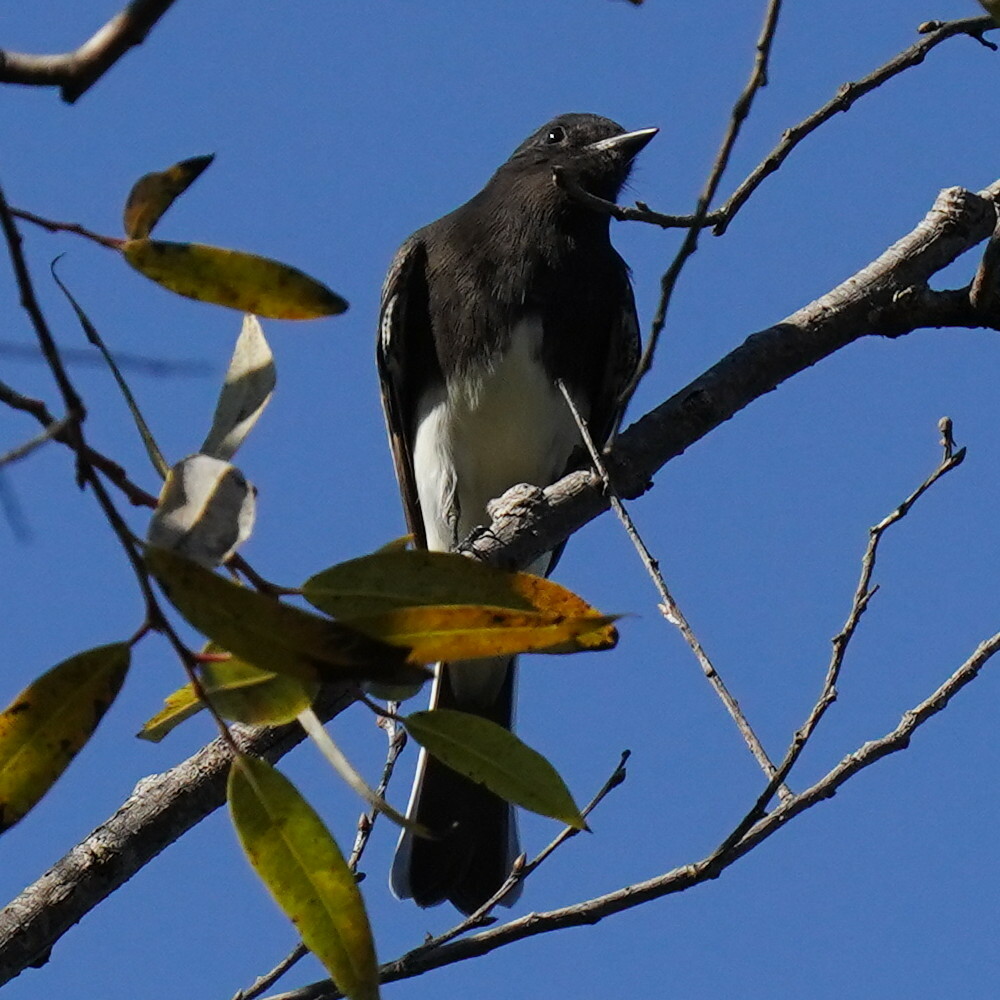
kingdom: Animalia
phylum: Chordata
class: Aves
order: Passeriformes
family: Tyrannidae
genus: Sayornis
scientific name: Sayornis nigricans
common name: Black phoebe
